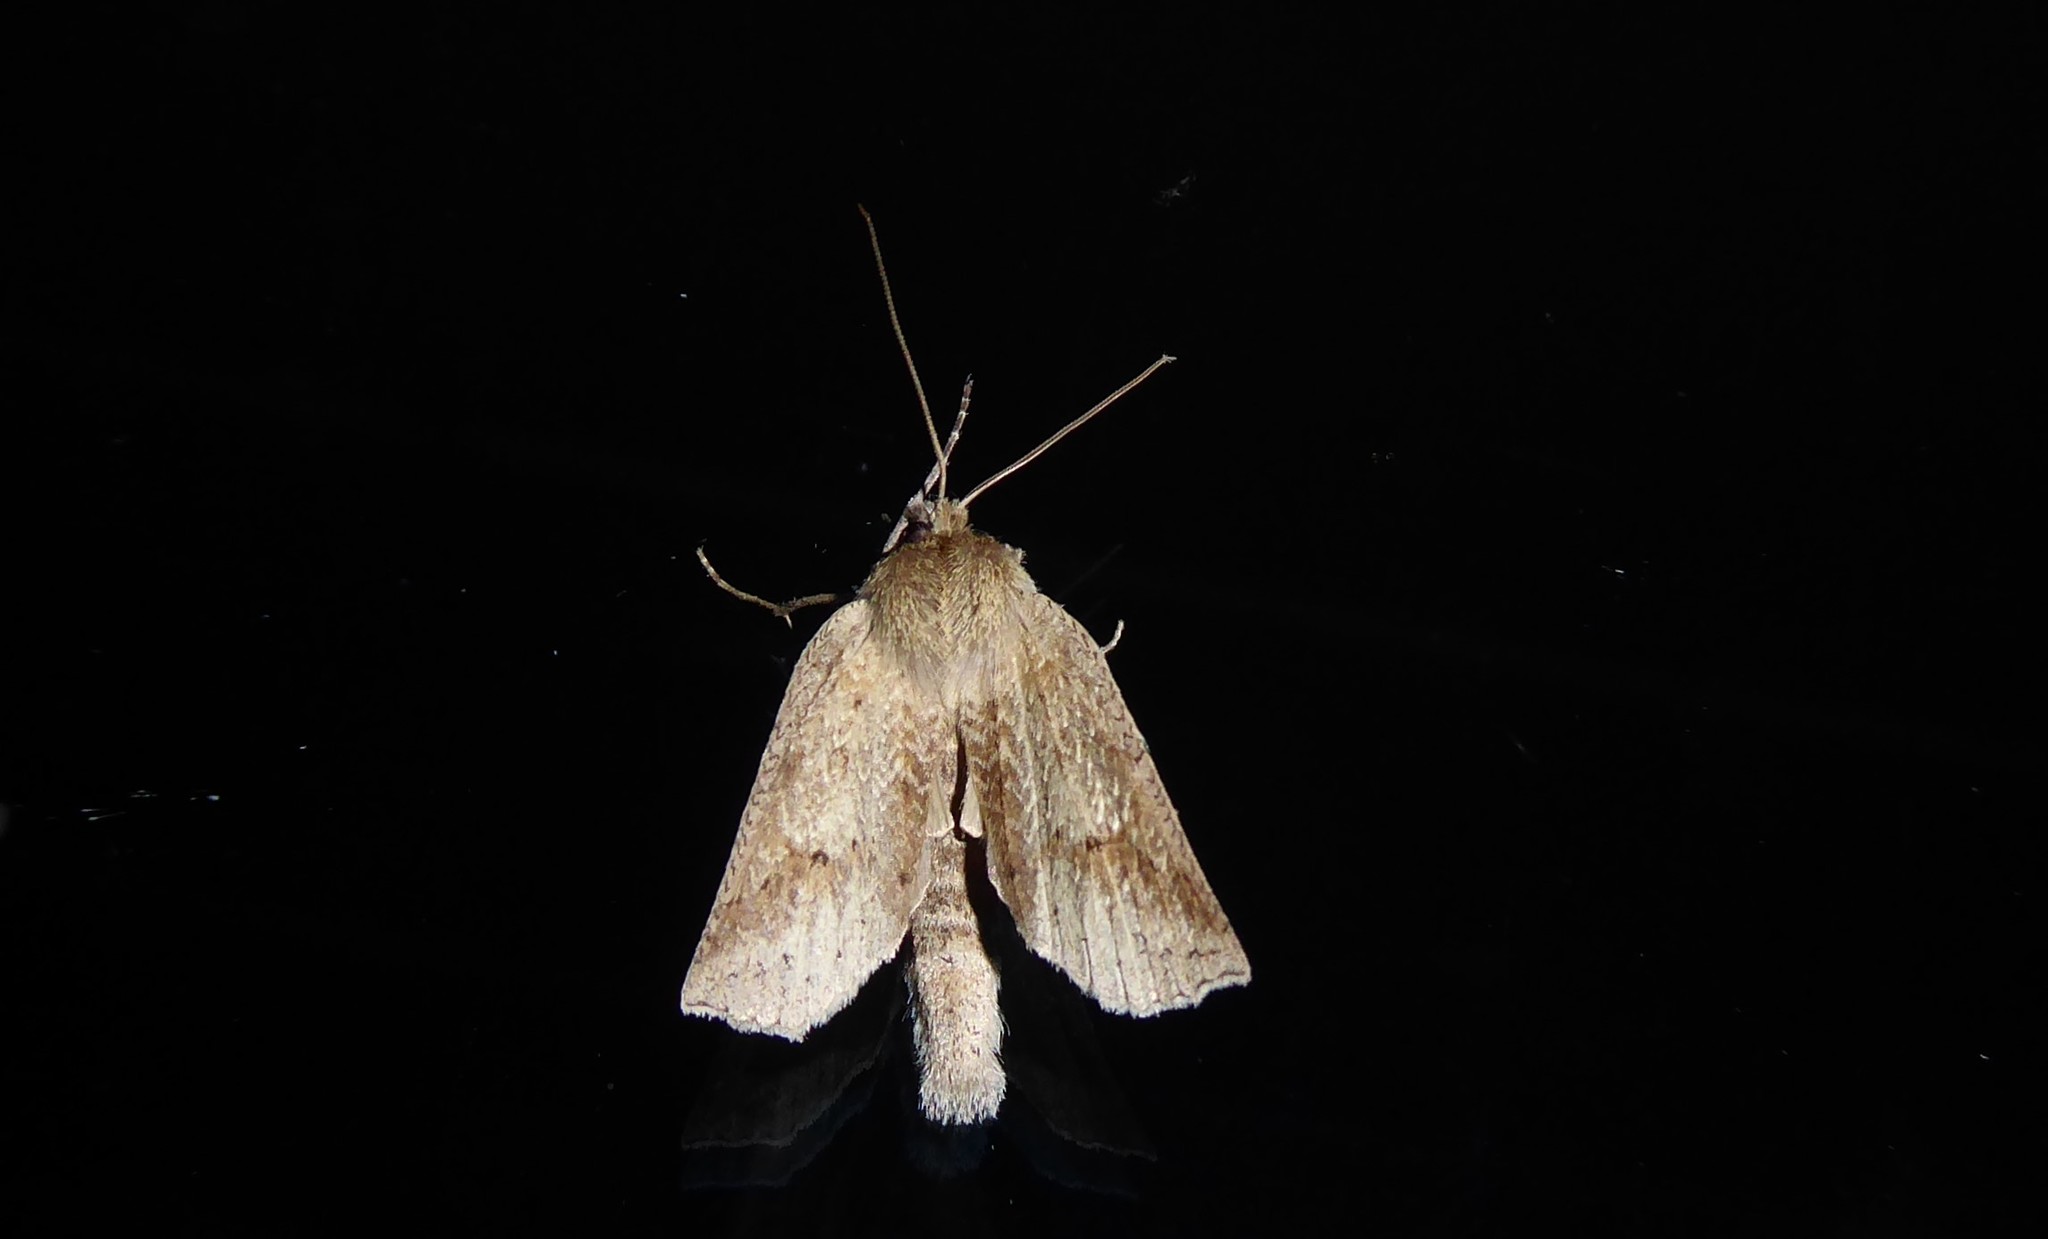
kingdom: Animalia
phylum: Arthropoda
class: Insecta
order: Lepidoptera
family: Geometridae
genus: Declana
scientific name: Declana leptomera
